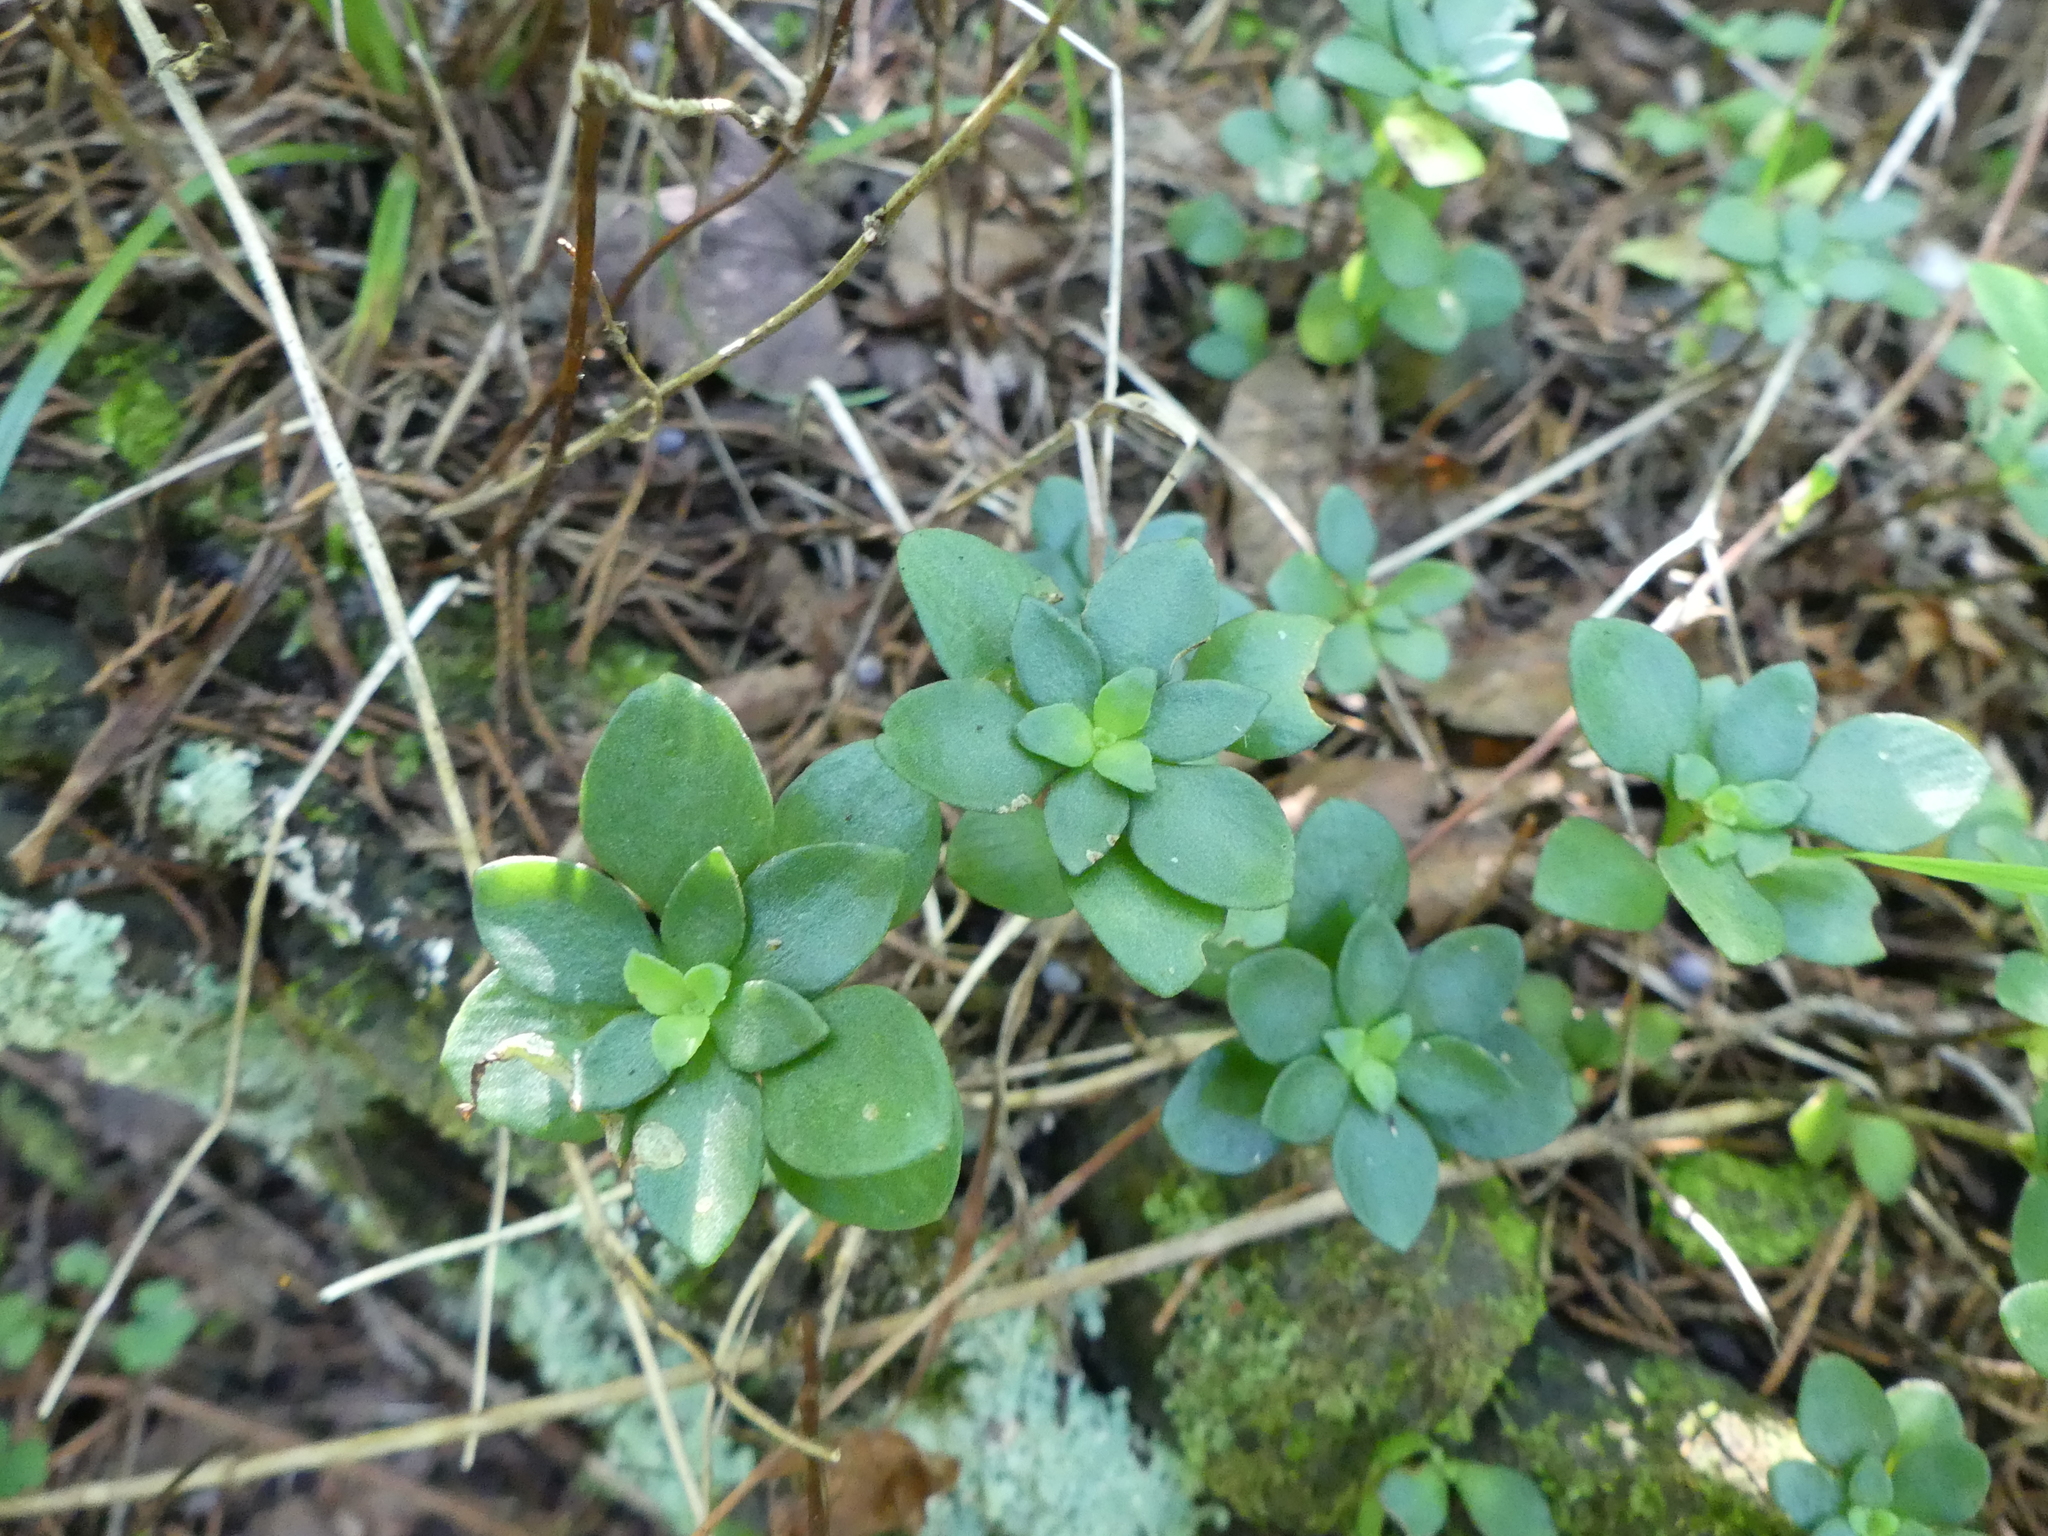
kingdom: Plantae
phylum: Tracheophyta
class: Magnoliopsida
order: Saxifragales
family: Crassulaceae
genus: Sedum
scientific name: Sedum ternatum
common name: Wild stonecrop
